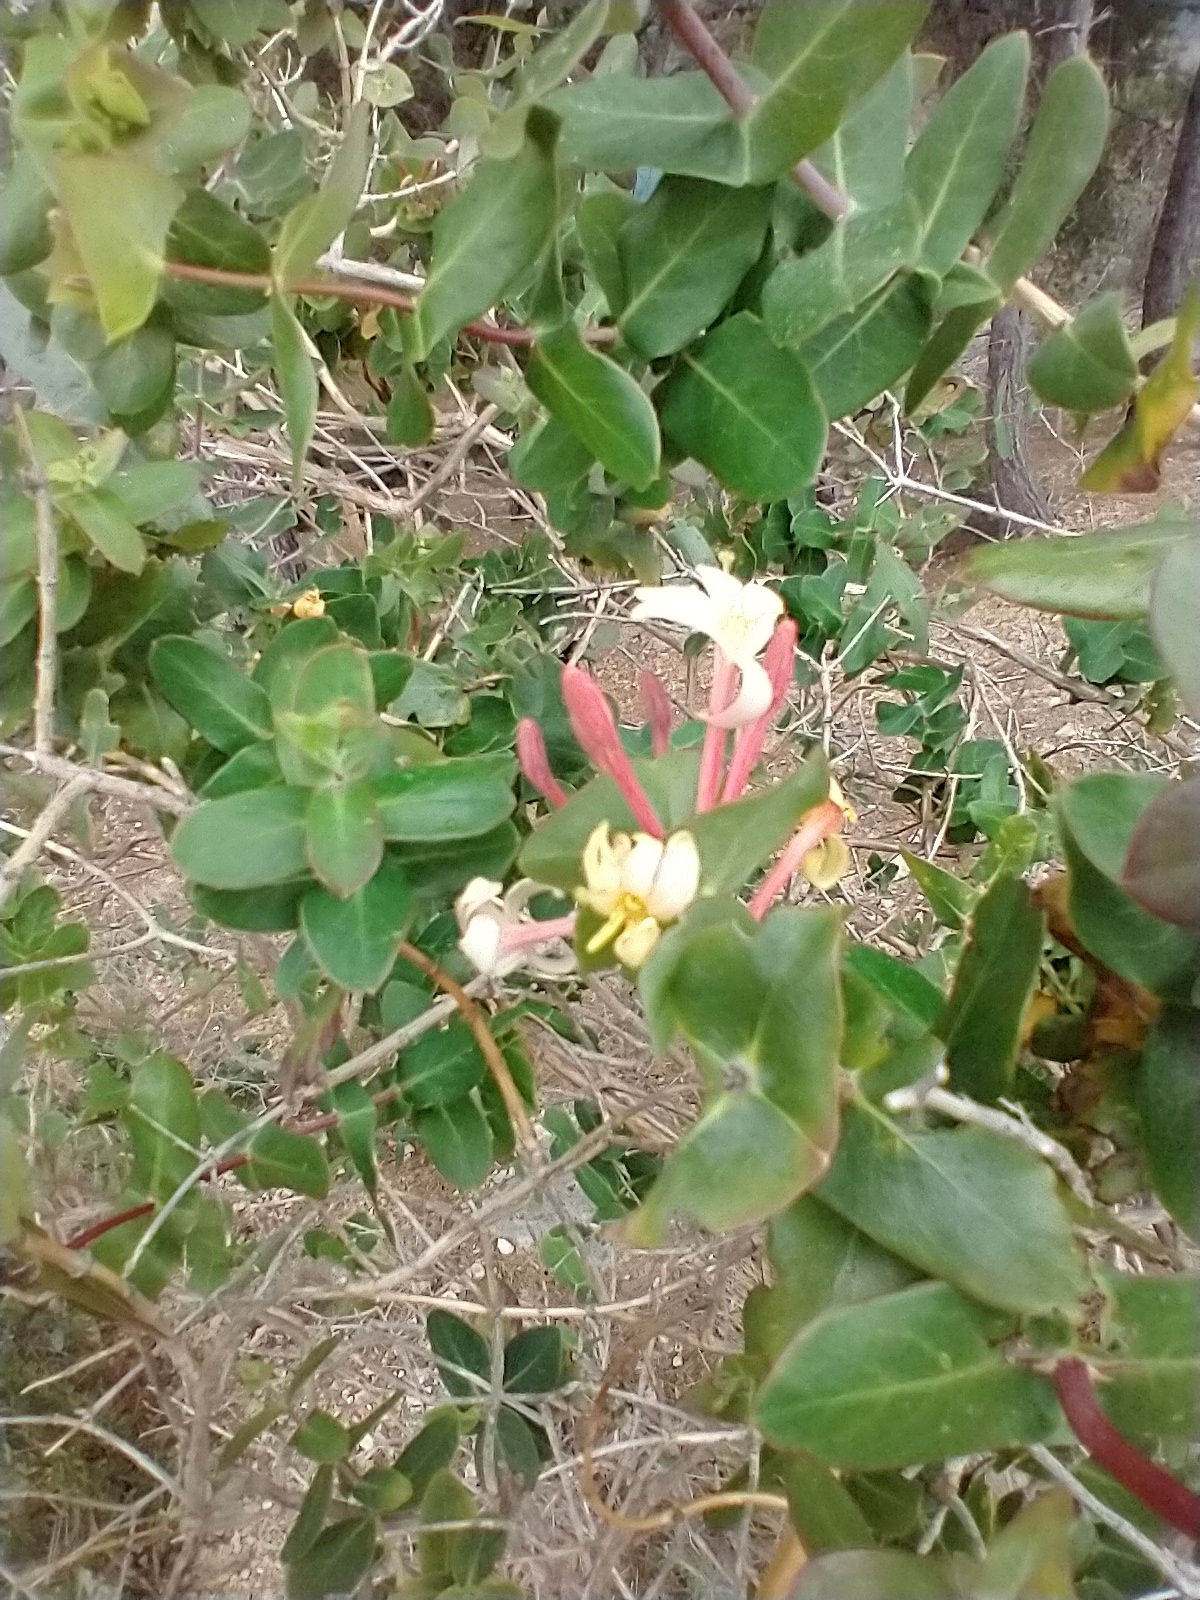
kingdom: Plantae
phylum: Tracheophyta
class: Magnoliopsida
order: Dipsacales
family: Caprifoliaceae
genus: Lonicera
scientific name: Lonicera implexa
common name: Minorca honeysuckle
